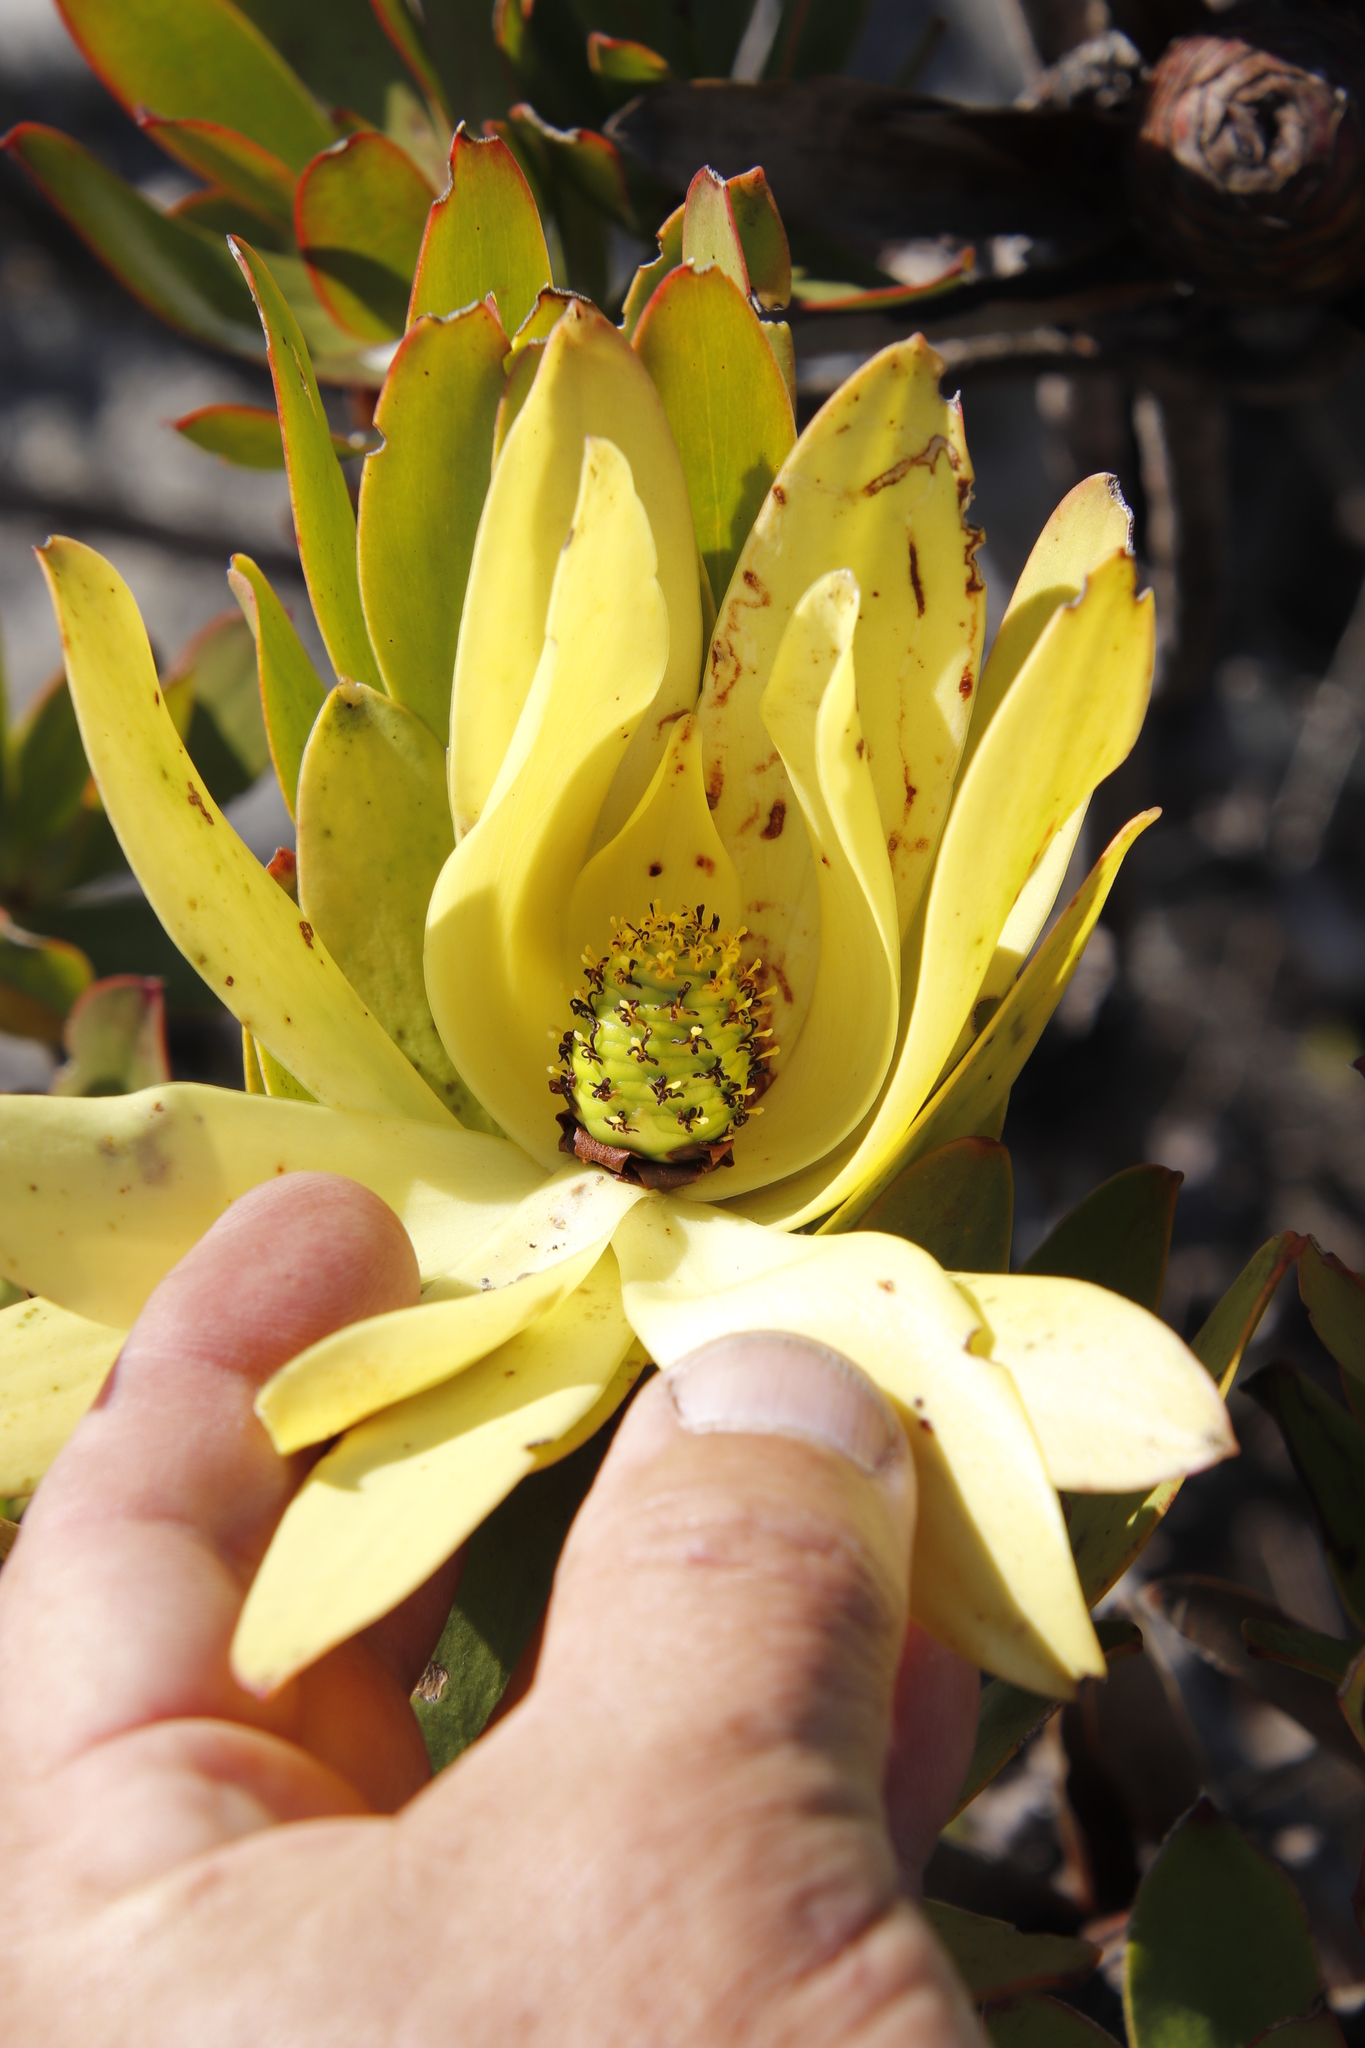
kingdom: Plantae
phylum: Tracheophyta
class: Magnoliopsida
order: Proteales
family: Proteaceae
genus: Leucadendron
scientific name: Leucadendron
